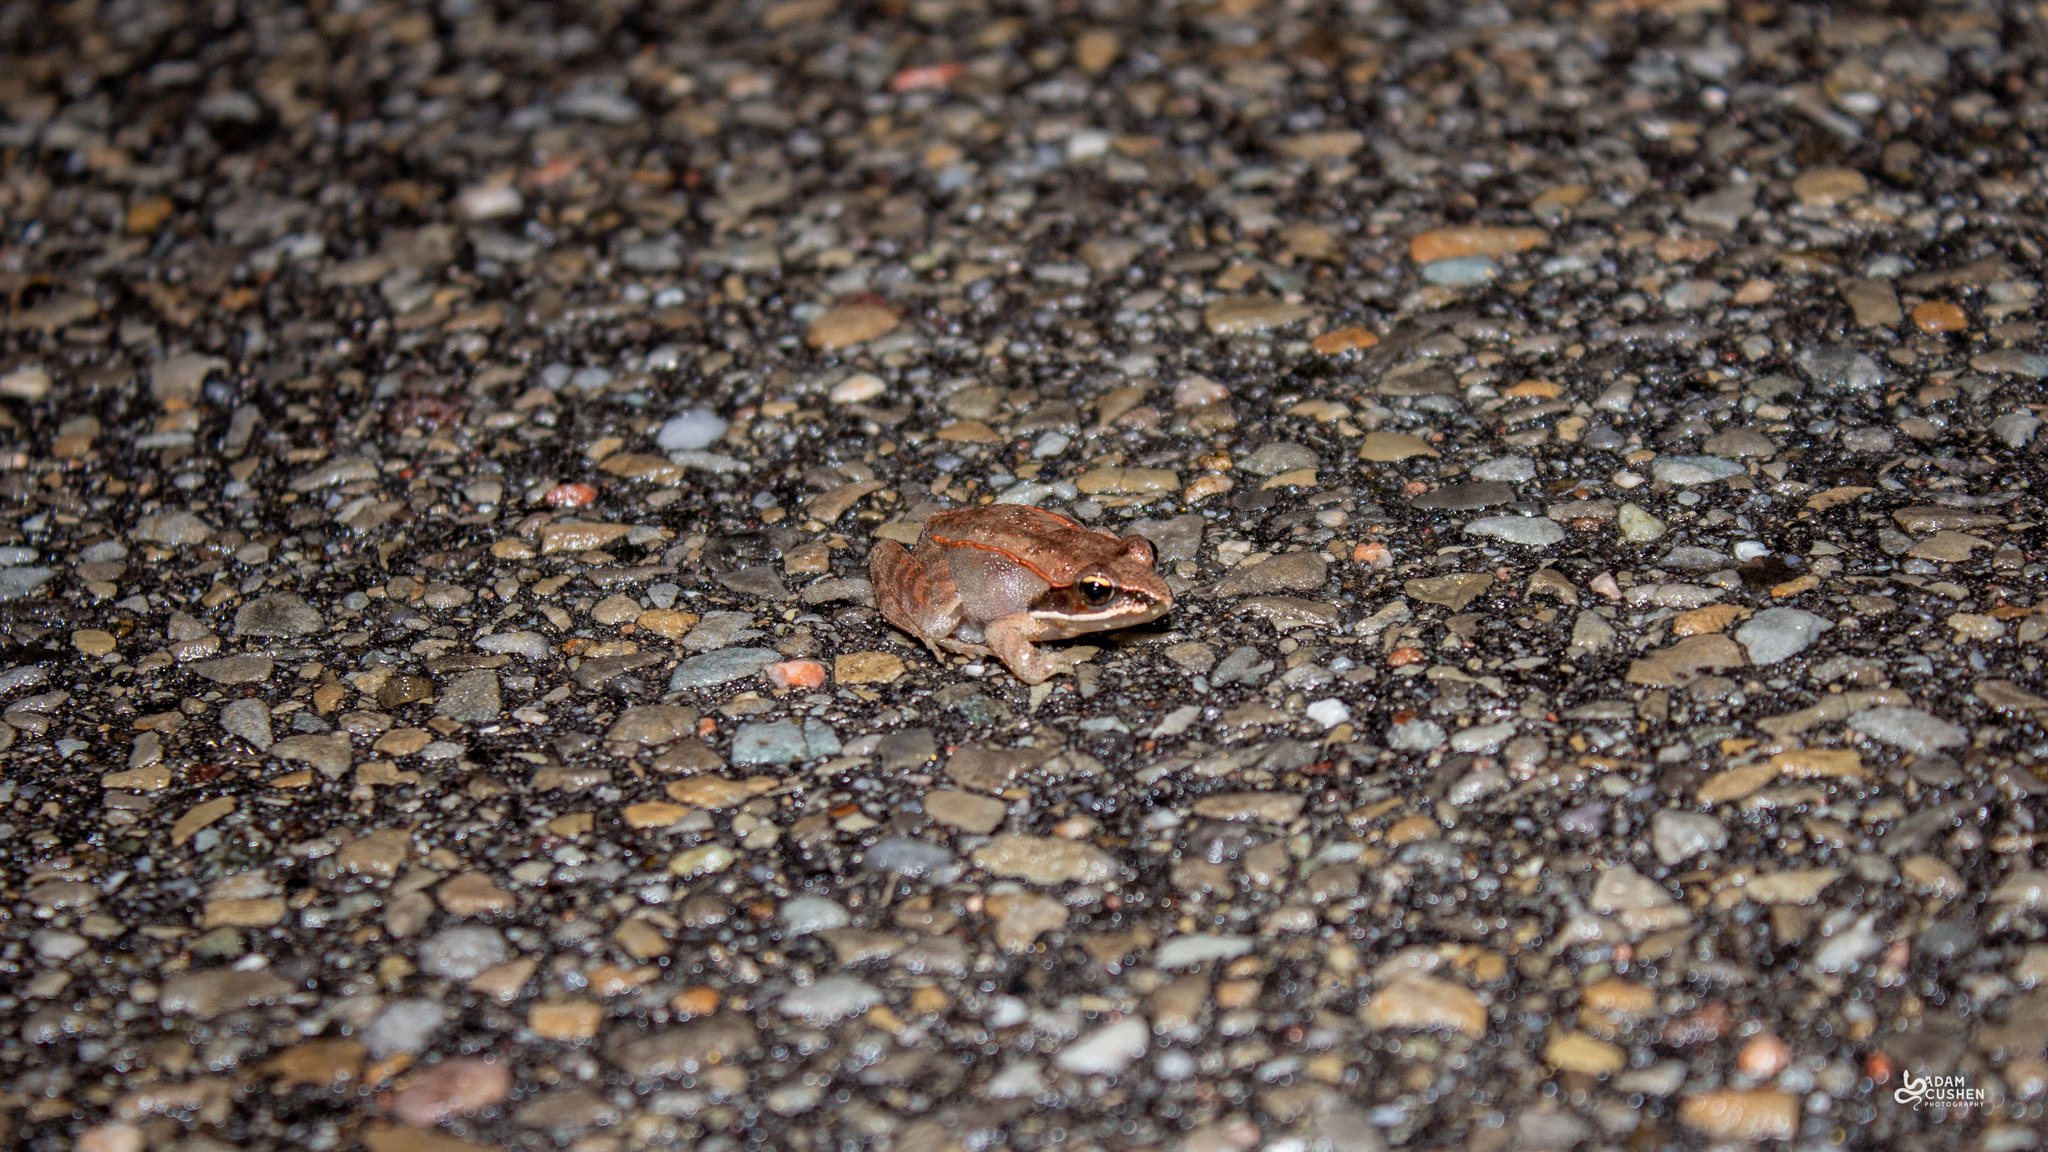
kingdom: Animalia
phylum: Chordata
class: Amphibia
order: Anura
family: Ranidae
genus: Lithobates
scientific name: Lithobates sylvaticus
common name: Wood frog
